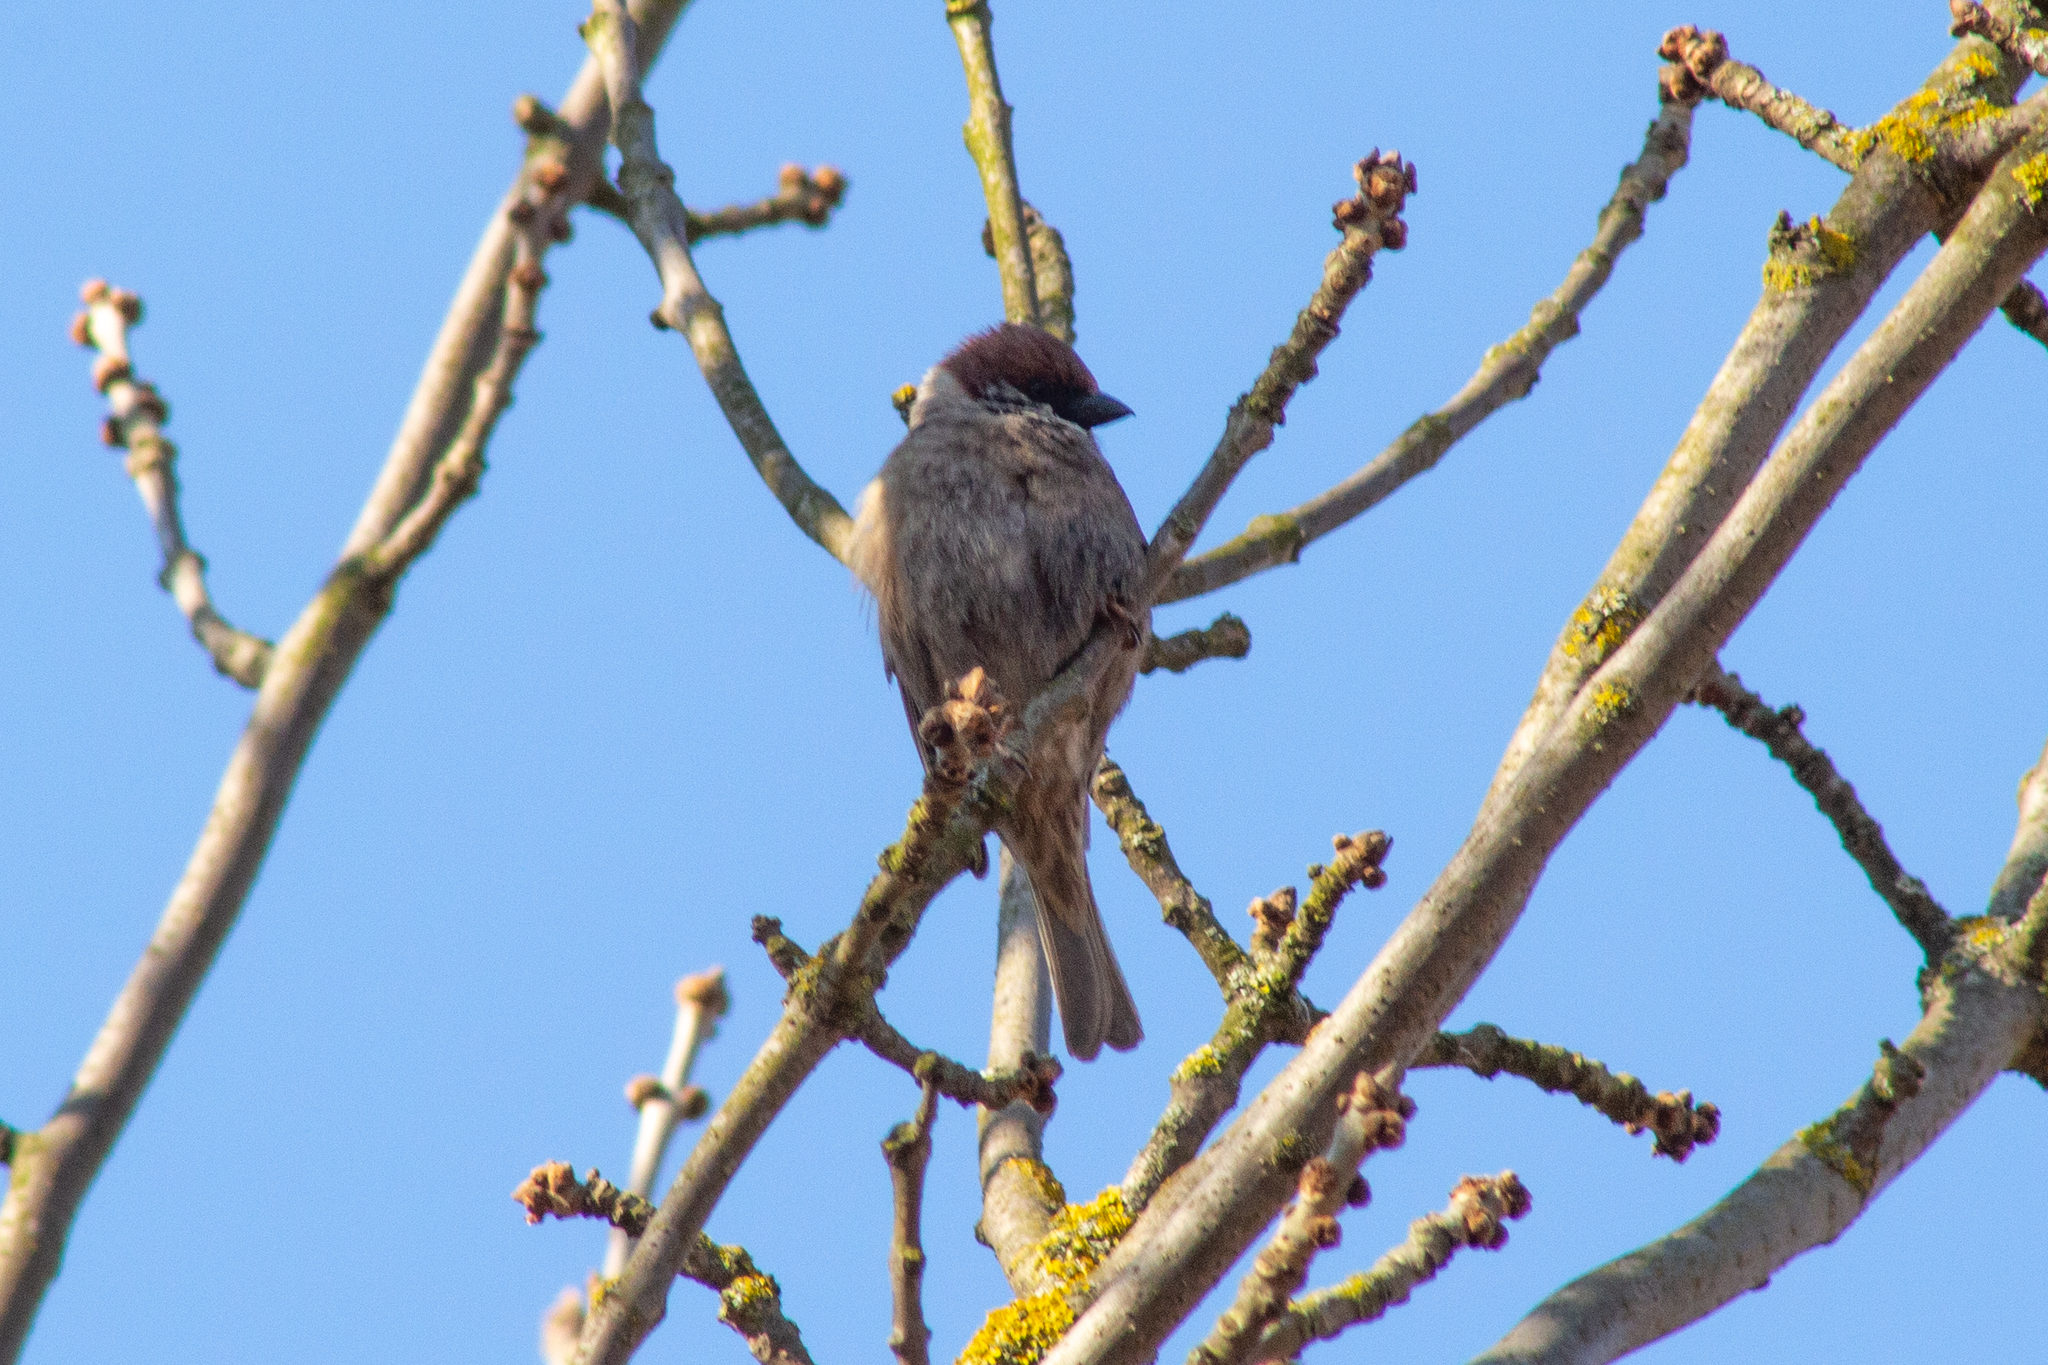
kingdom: Animalia
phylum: Chordata
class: Aves
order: Passeriformes
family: Passeridae
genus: Passer
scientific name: Passer montanus
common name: Eurasian tree sparrow
